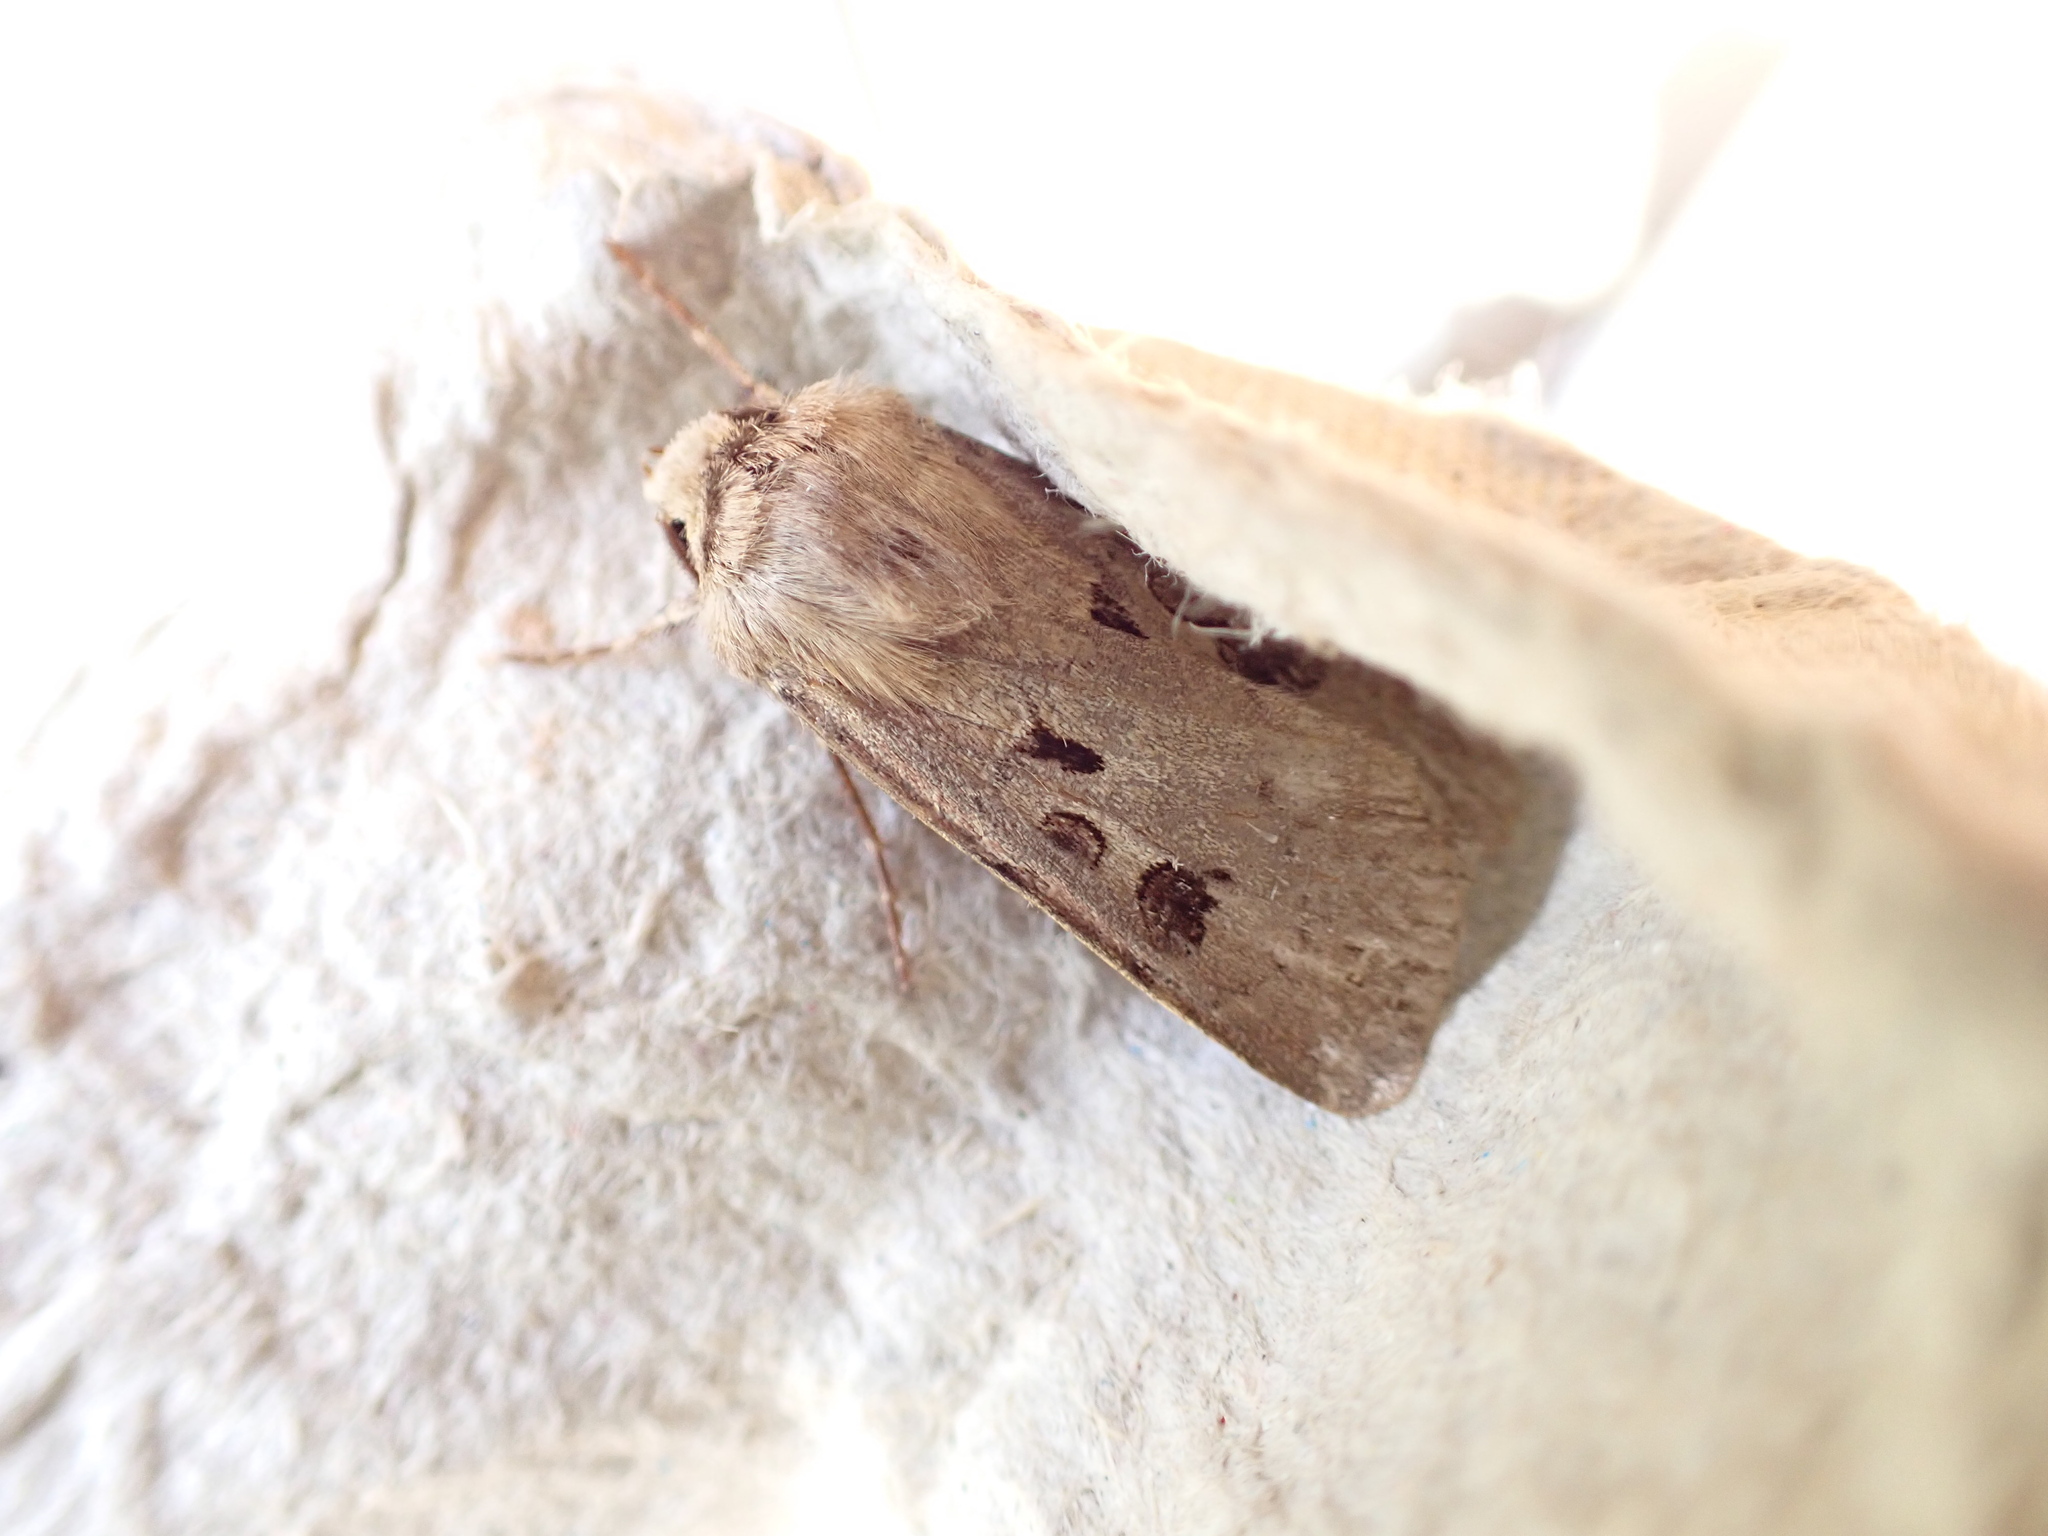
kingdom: Animalia
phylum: Arthropoda
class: Insecta
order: Lepidoptera
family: Noctuidae
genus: Agrotis
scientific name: Agrotis exclamationis
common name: Heart and dart
